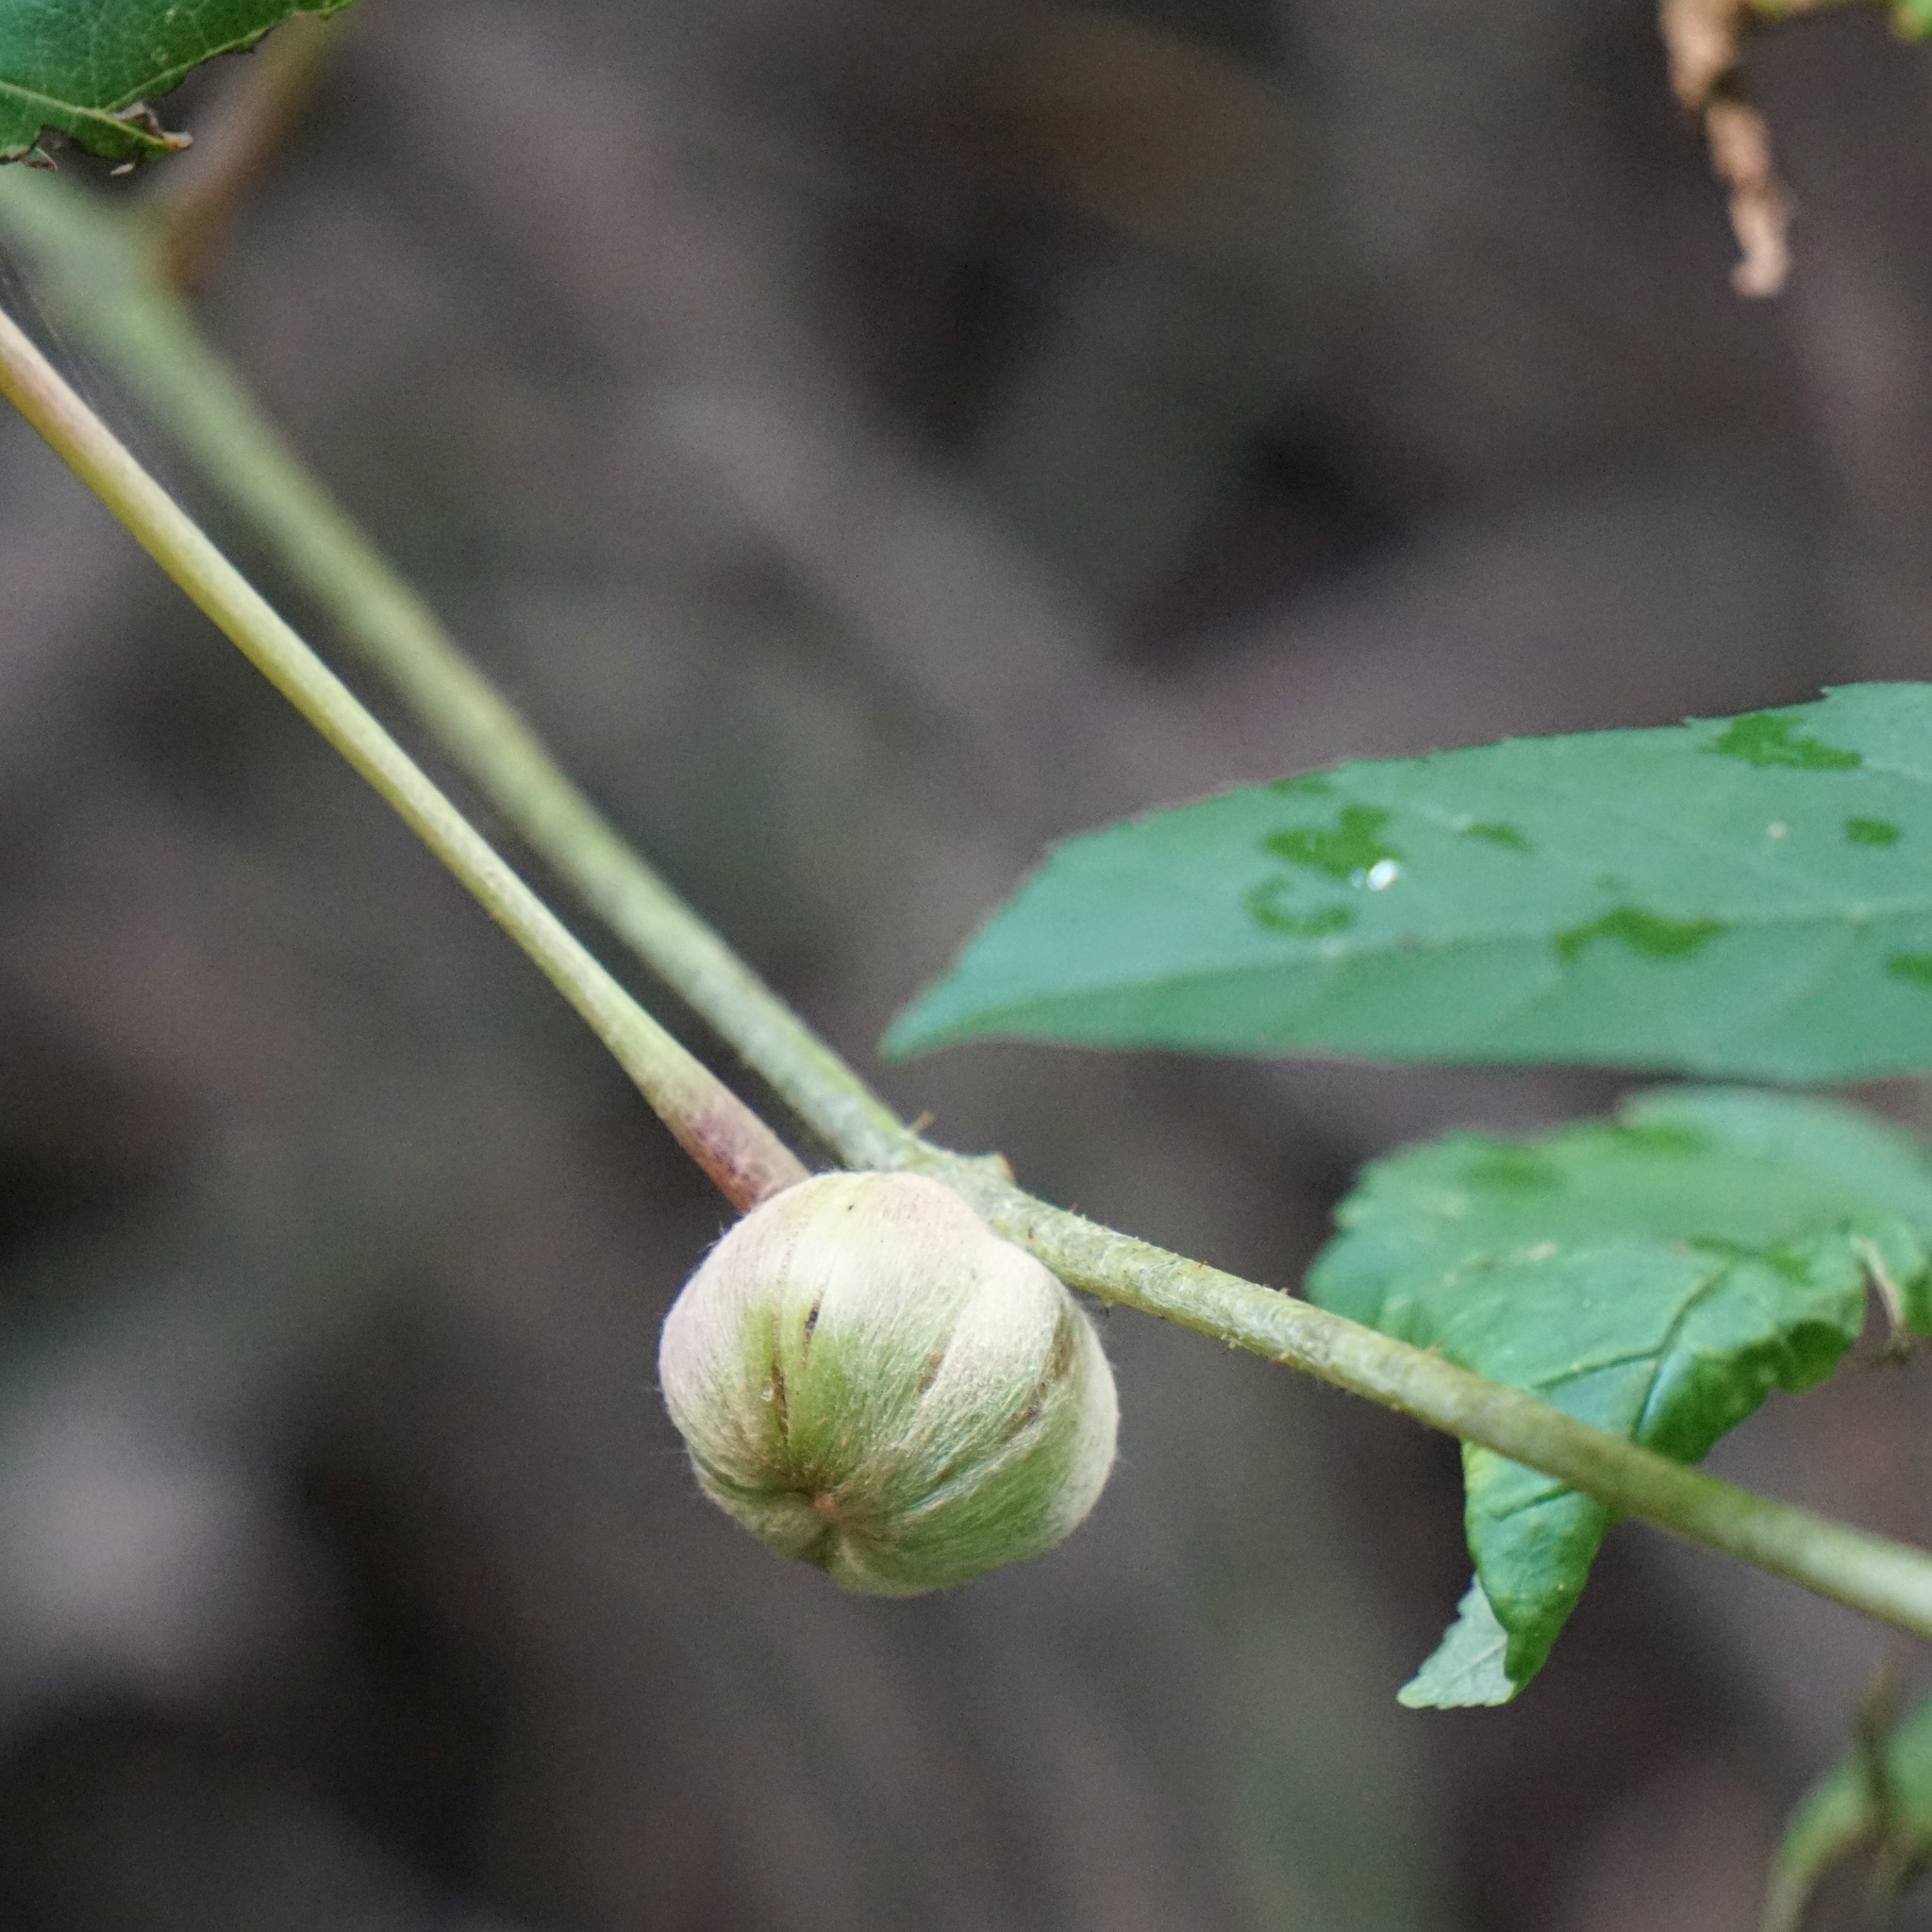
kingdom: Animalia
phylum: Arthropoda
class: Insecta
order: Diptera
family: Cecidomyiidae
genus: Ampelomyia
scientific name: Ampelomyia vitispomum
